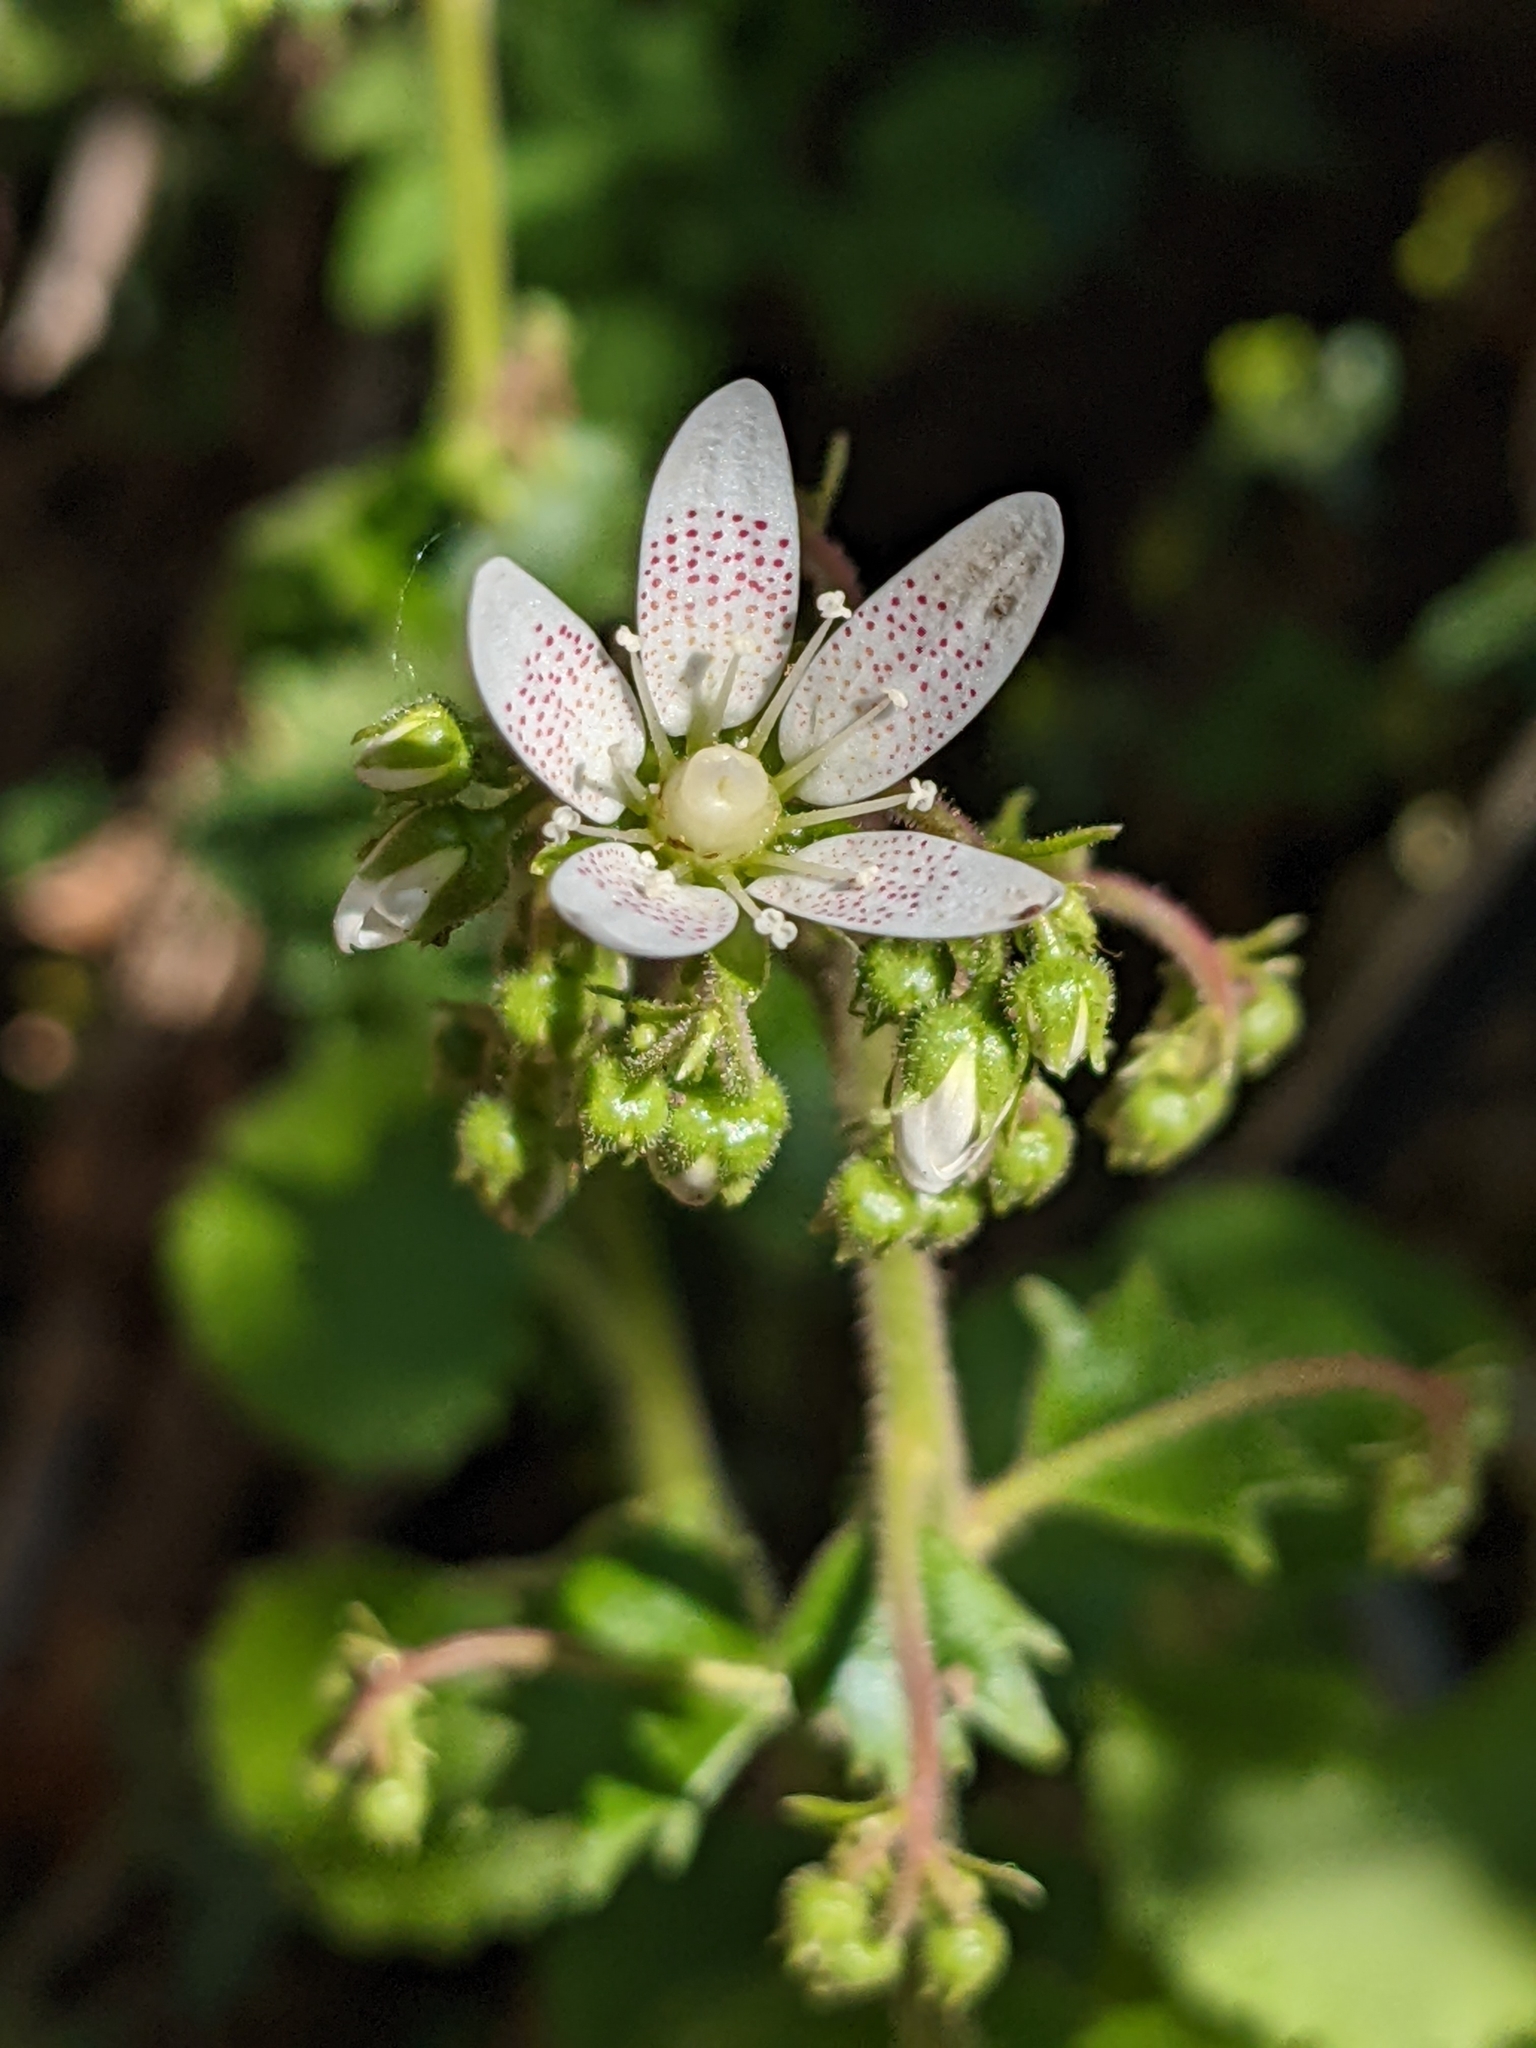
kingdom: Plantae
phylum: Tracheophyta
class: Magnoliopsida
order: Saxifragales
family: Saxifragaceae
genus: Saxifraga
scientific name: Saxifraga rotundifolia
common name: Round-leaved saxifrage
